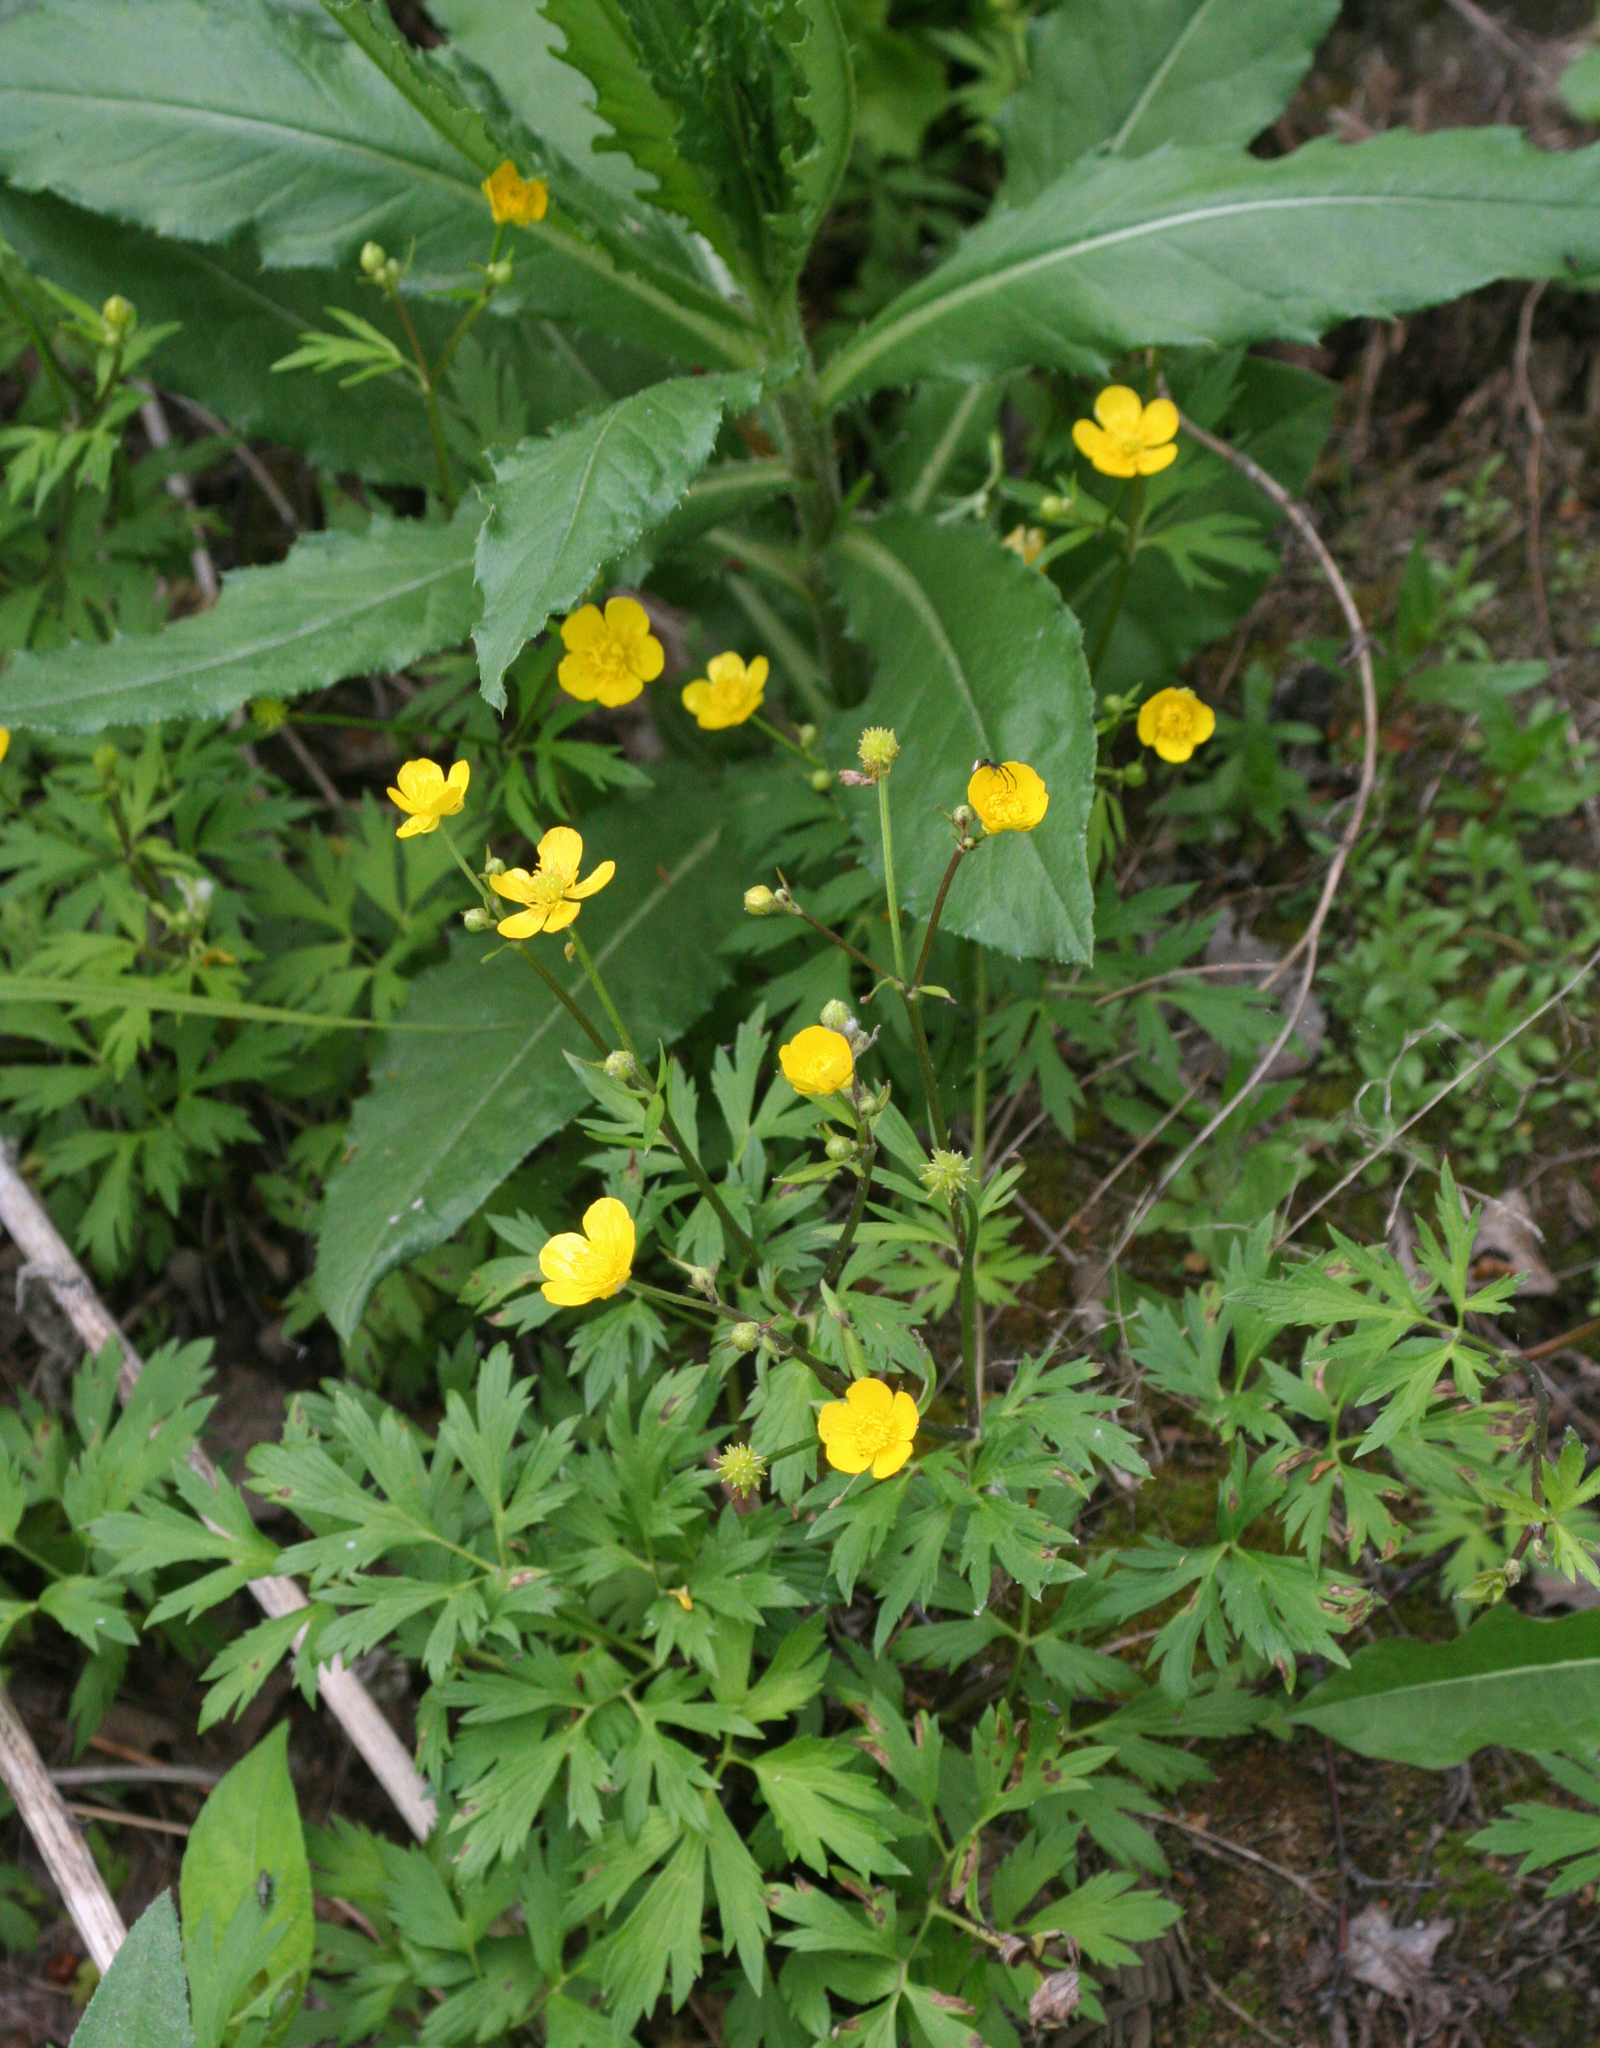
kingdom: Plantae
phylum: Tracheophyta
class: Magnoliopsida
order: Ranunculales
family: Ranunculaceae
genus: Ranunculus
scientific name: Ranunculus repens
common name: Creeping buttercup
